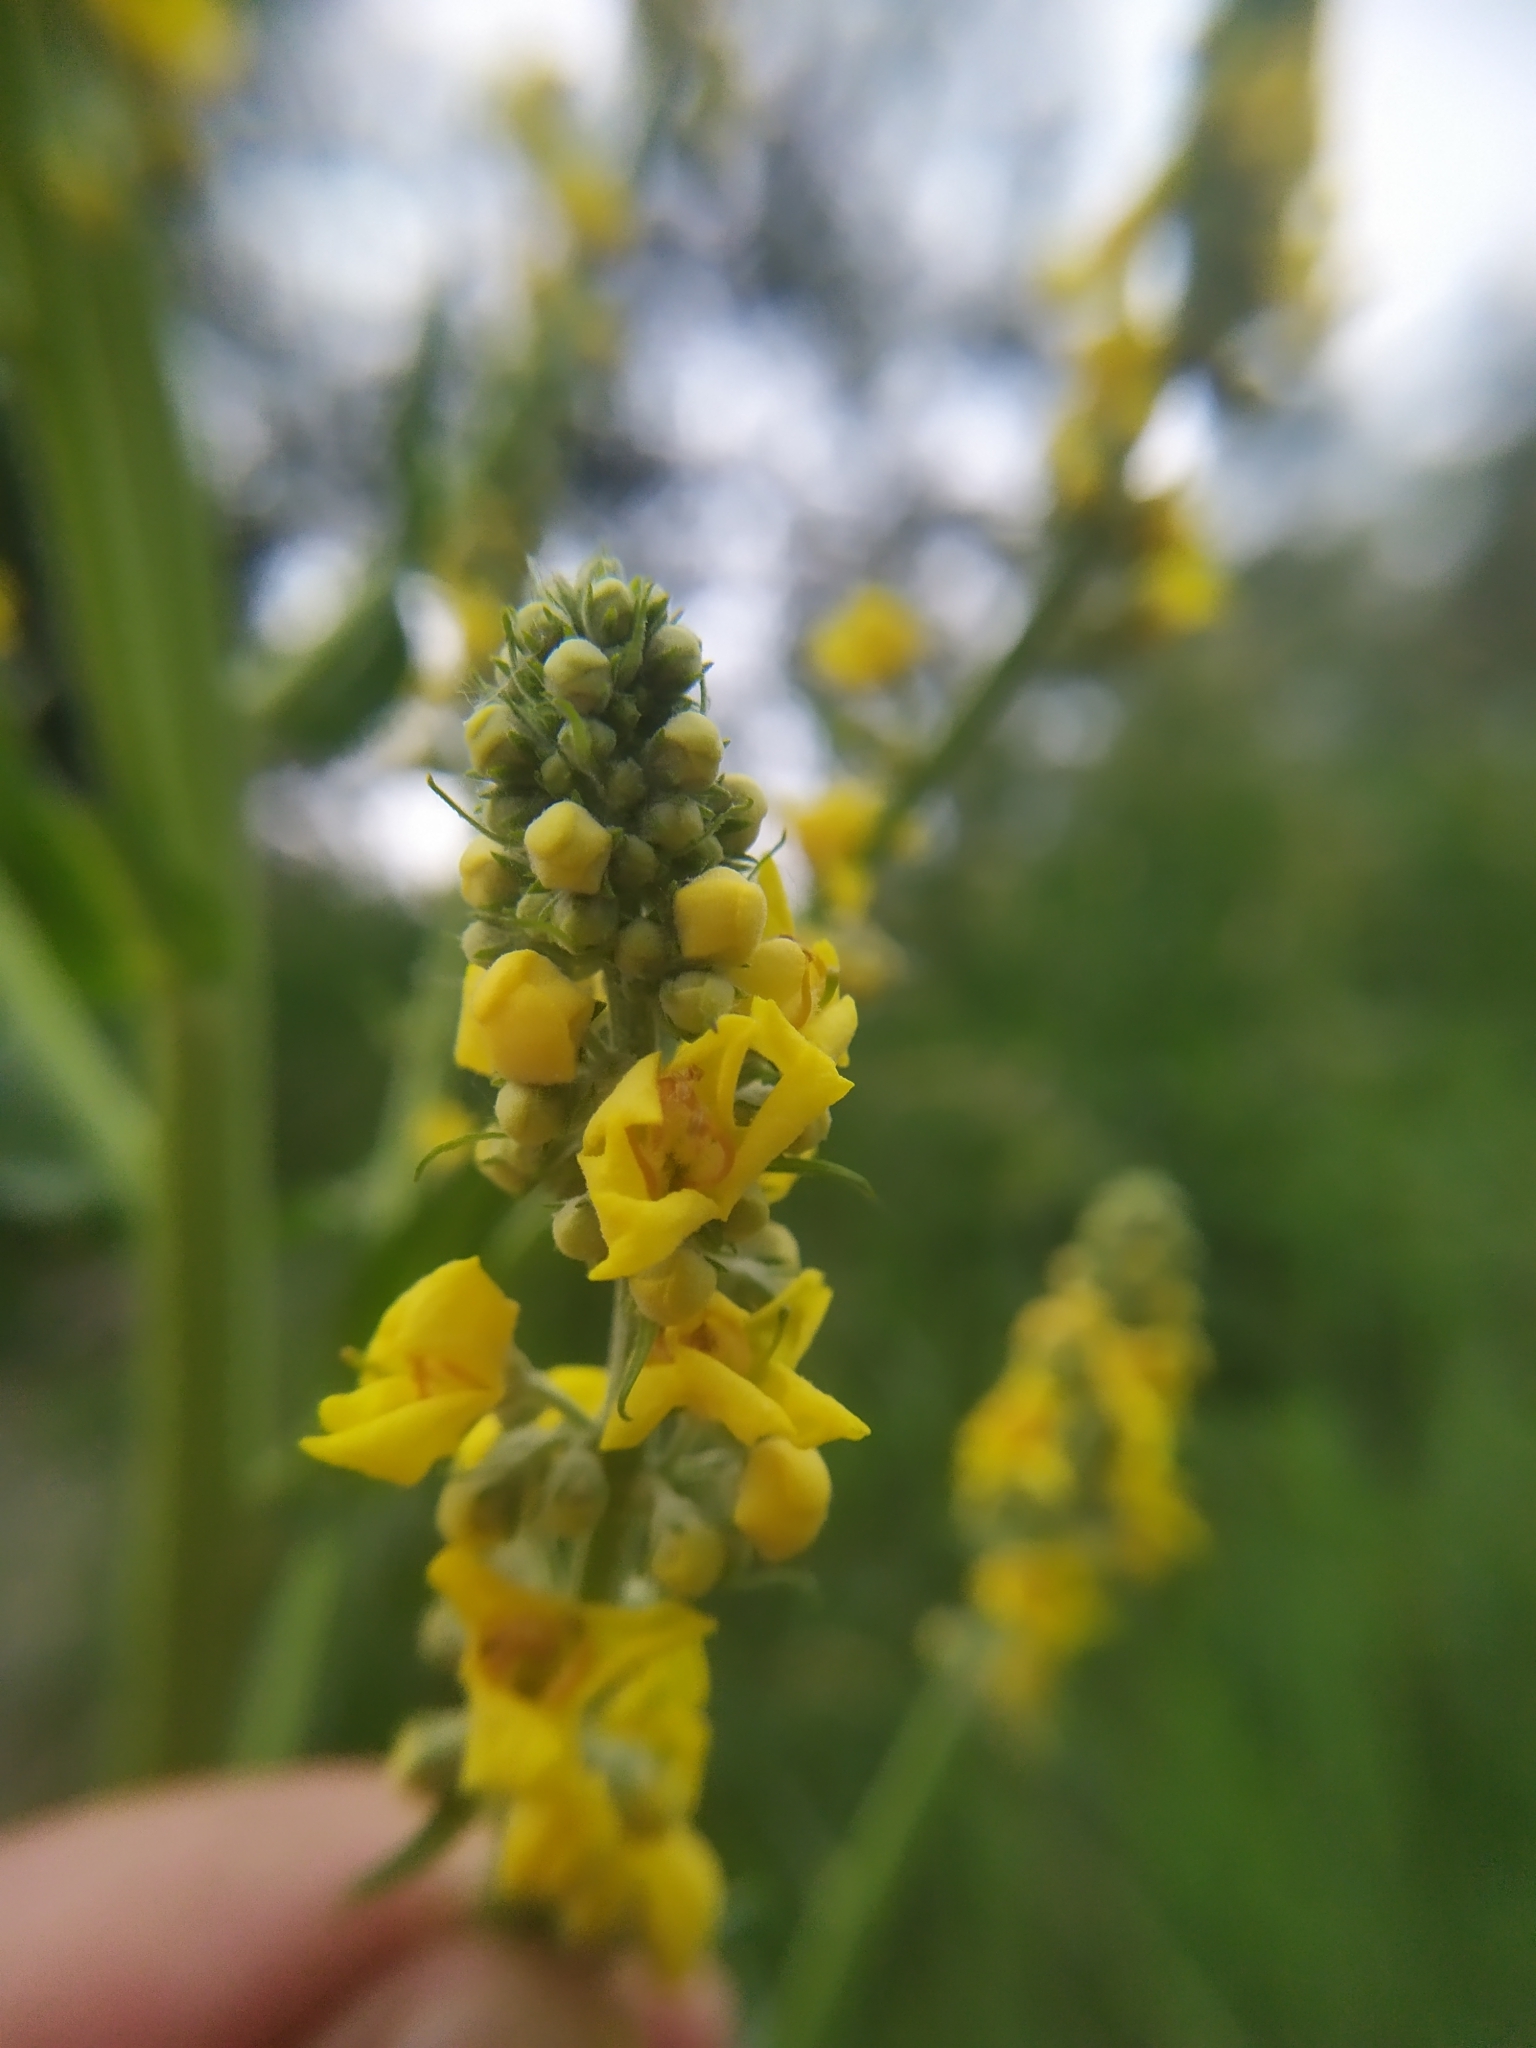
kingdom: Plantae
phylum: Tracheophyta
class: Magnoliopsida
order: Lamiales
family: Scrophulariaceae
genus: Verbascum
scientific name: Verbascum lychnitis
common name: White mullein
